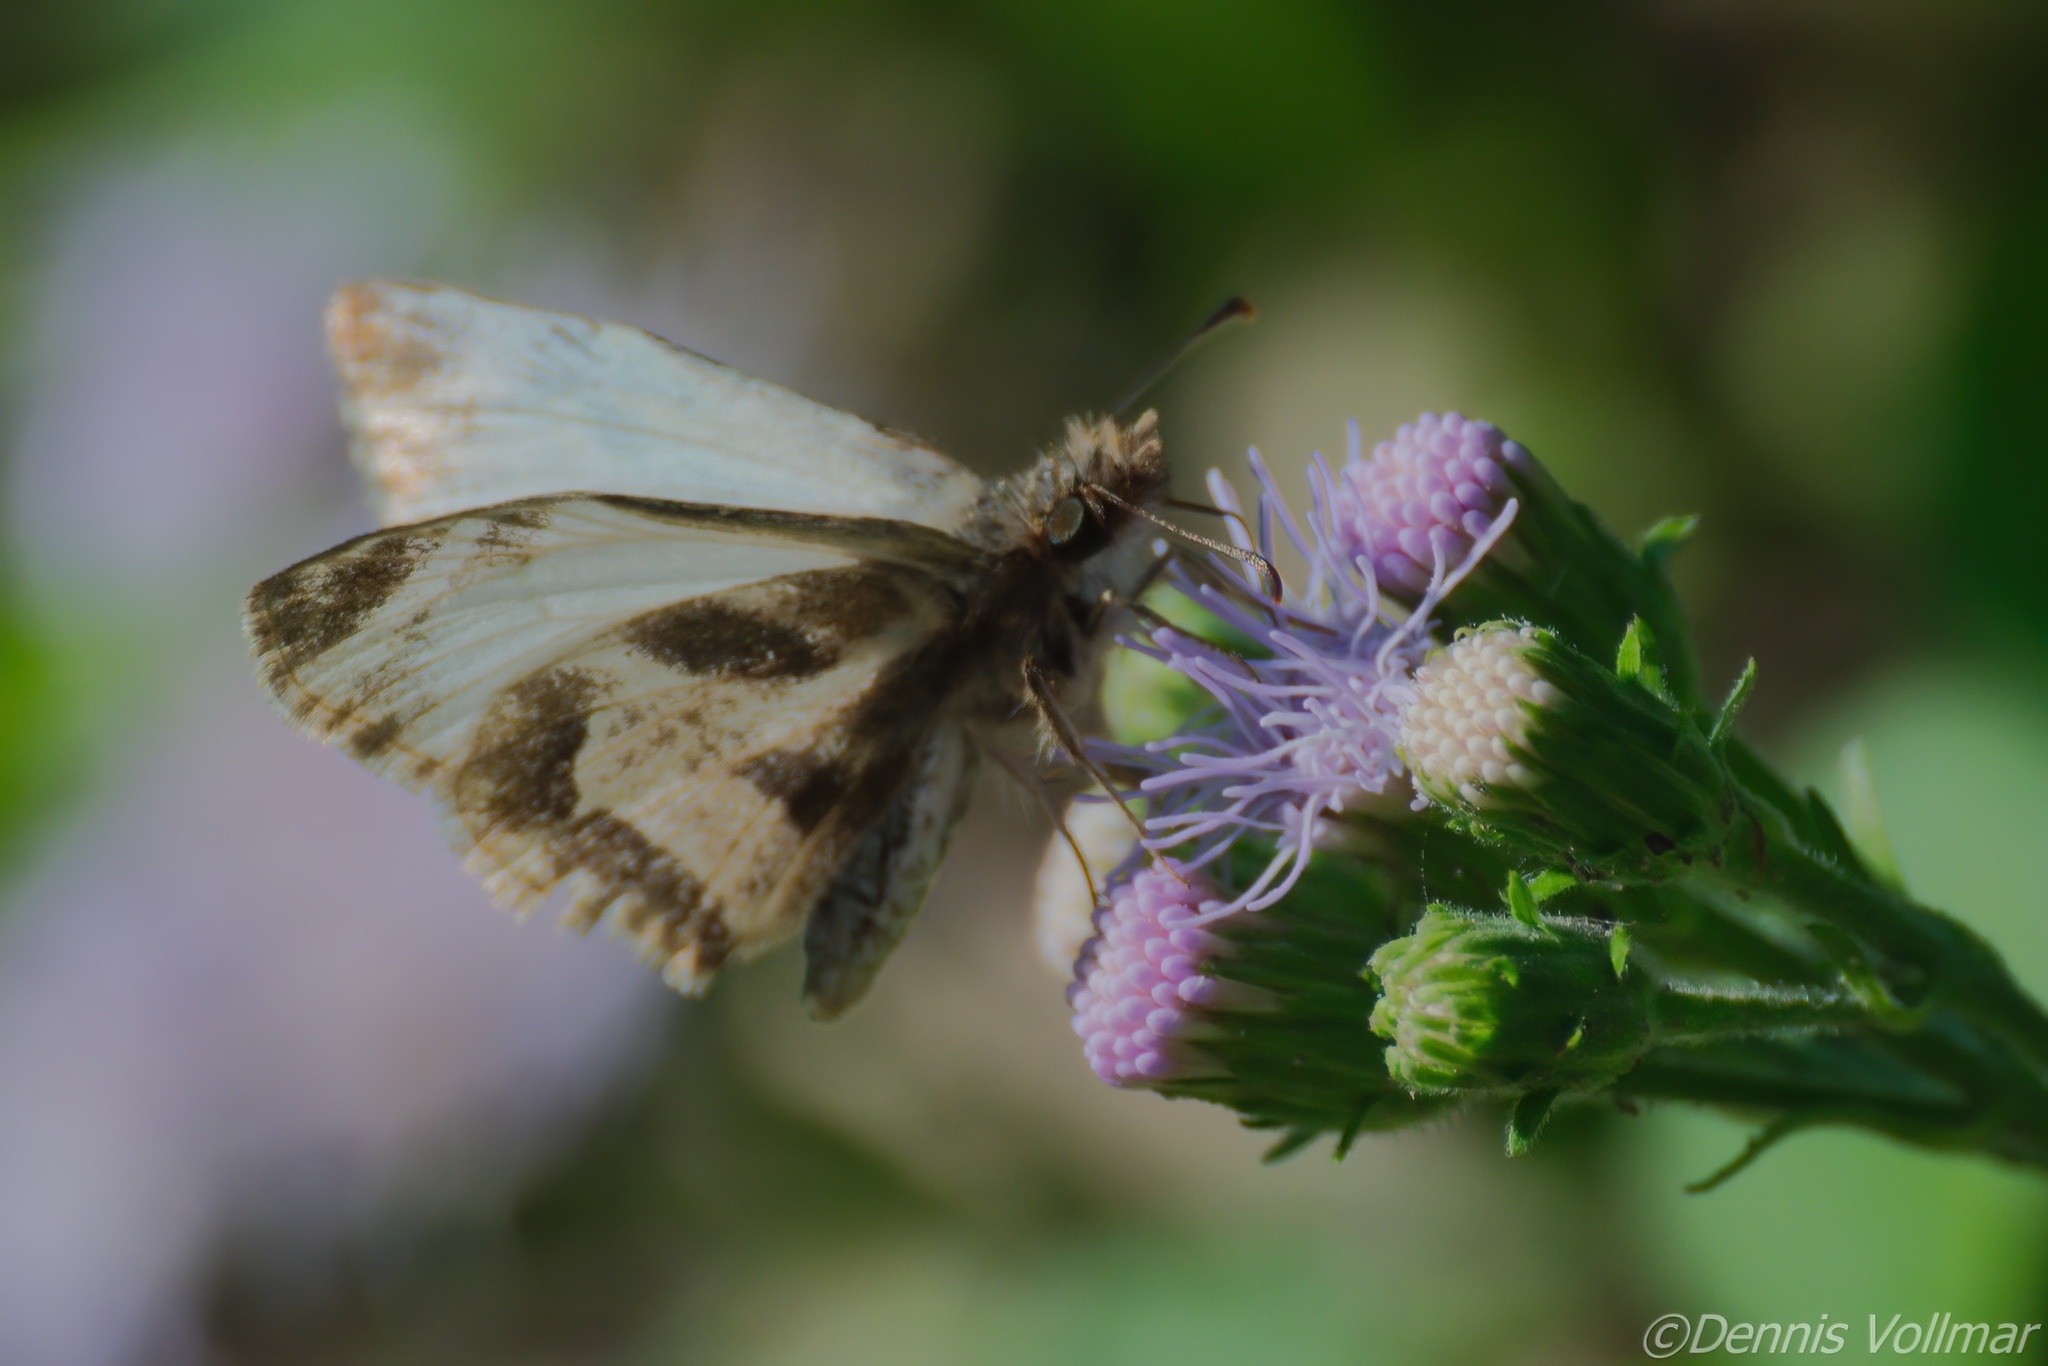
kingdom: Animalia
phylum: Arthropoda
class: Insecta
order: Lepidoptera
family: Hesperiidae
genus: Heliopetes
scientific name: Heliopetes macaira
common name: Turk's-cap white-skipper
